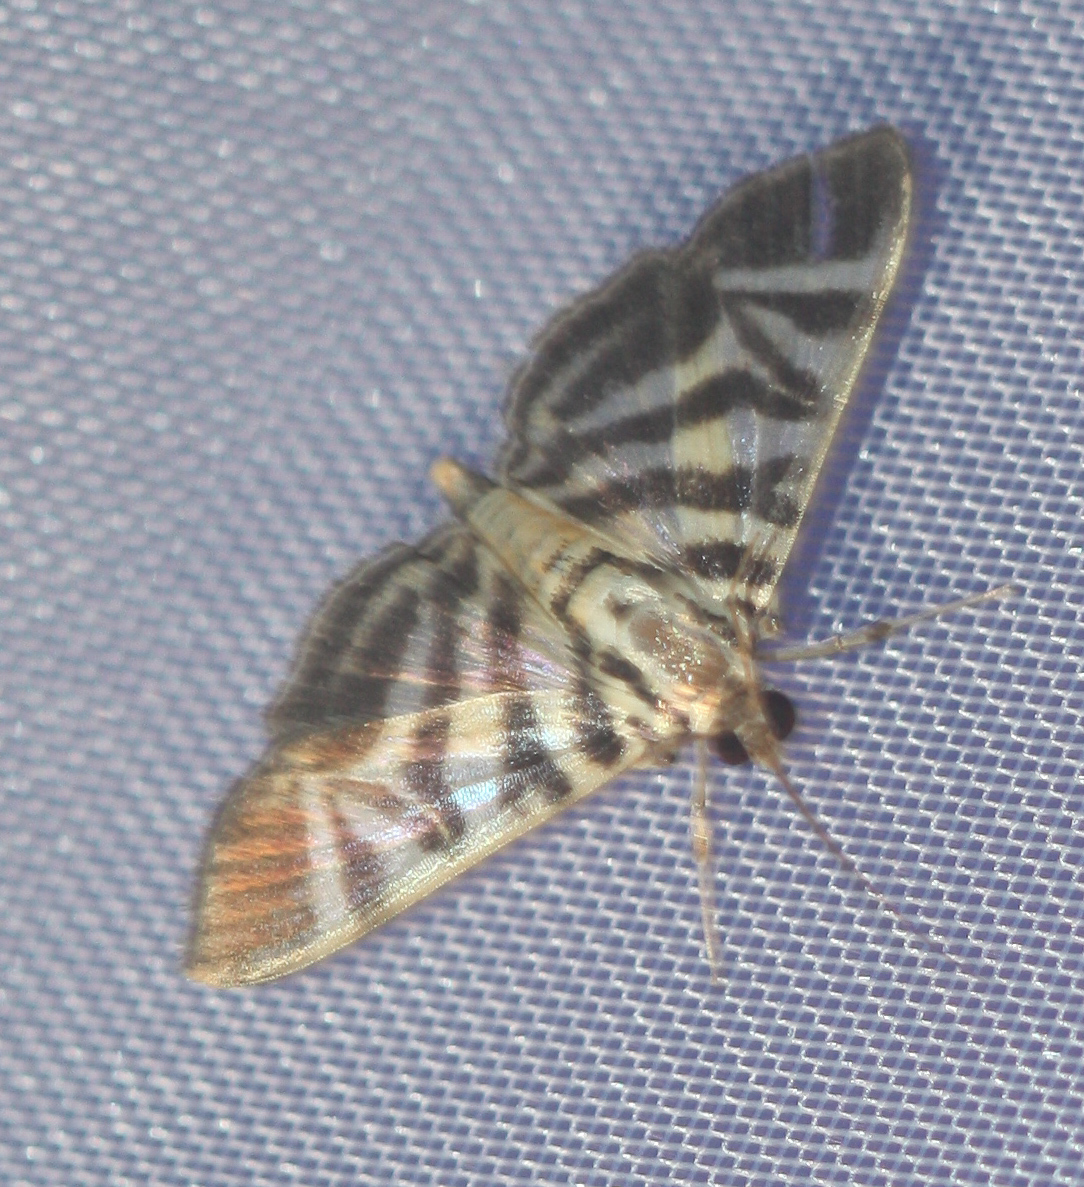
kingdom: Animalia
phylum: Arthropoda
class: Insecta
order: Lepidoptera
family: Crambidae
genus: Zebronia
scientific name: Zebronia Spilomela discordens
